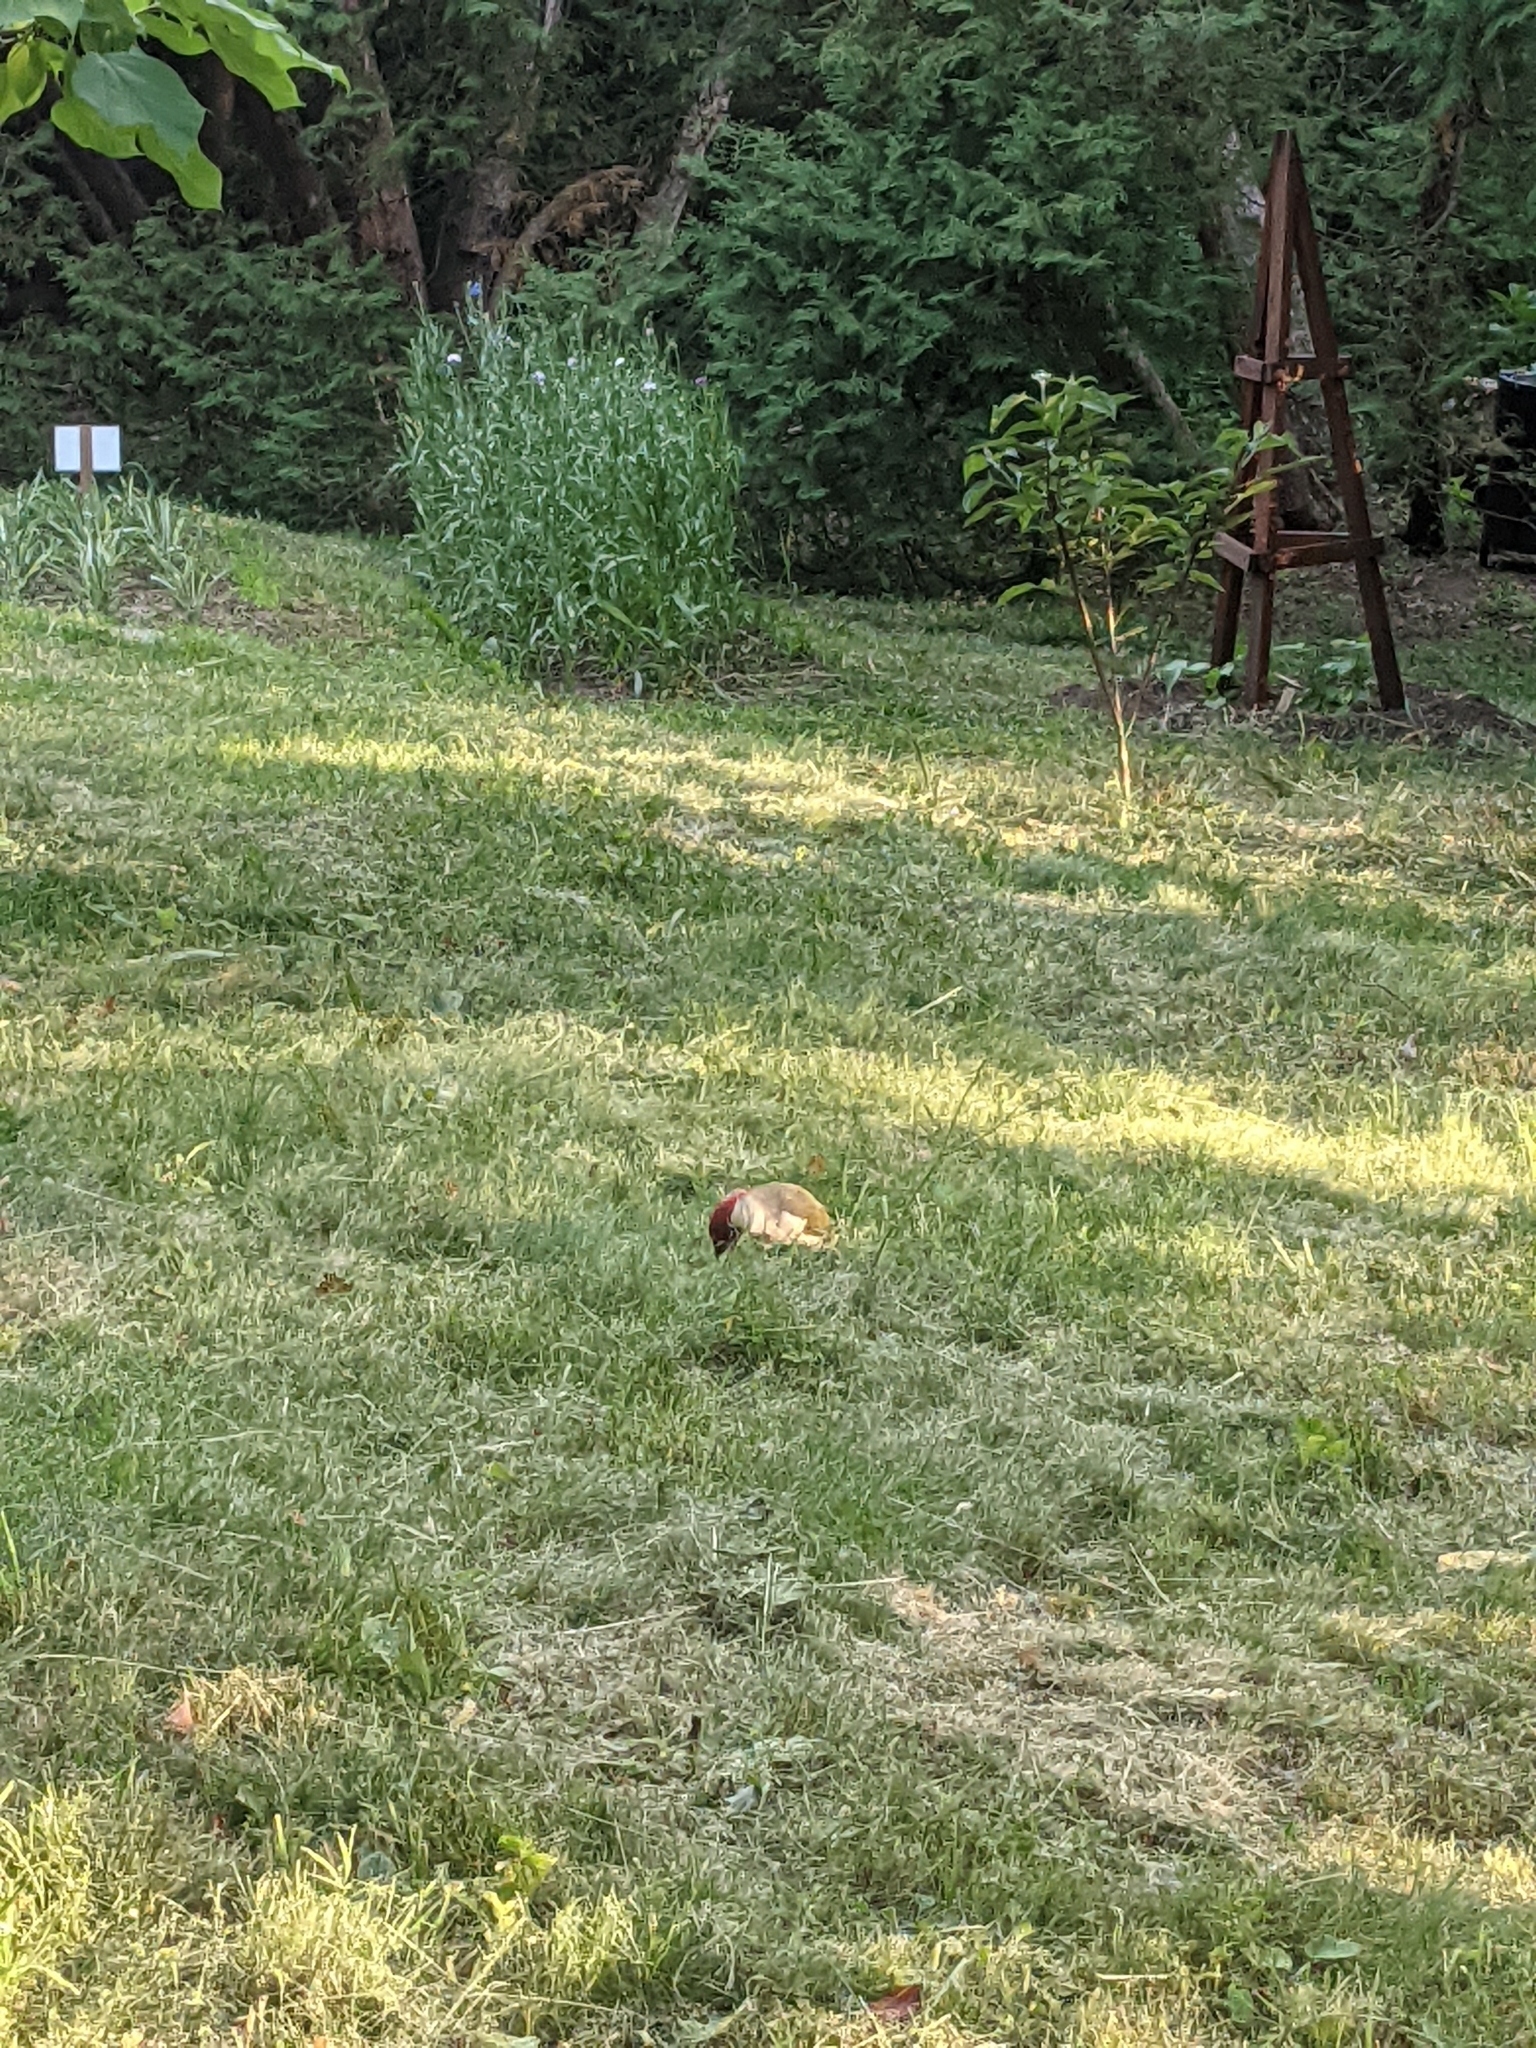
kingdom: Animalia
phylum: Chordata
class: Aves
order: Piciformes
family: Picidae
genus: Picus
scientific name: Picus viridis
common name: European green woodpecker
